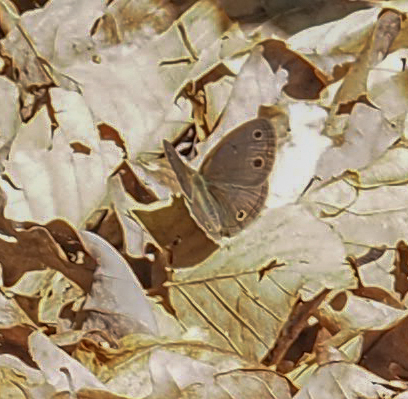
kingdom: Animalia
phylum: Arthropoda
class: Insecta
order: Lepidoptera
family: Nymphalidae
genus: Euptychia
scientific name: Euptychia cymela
